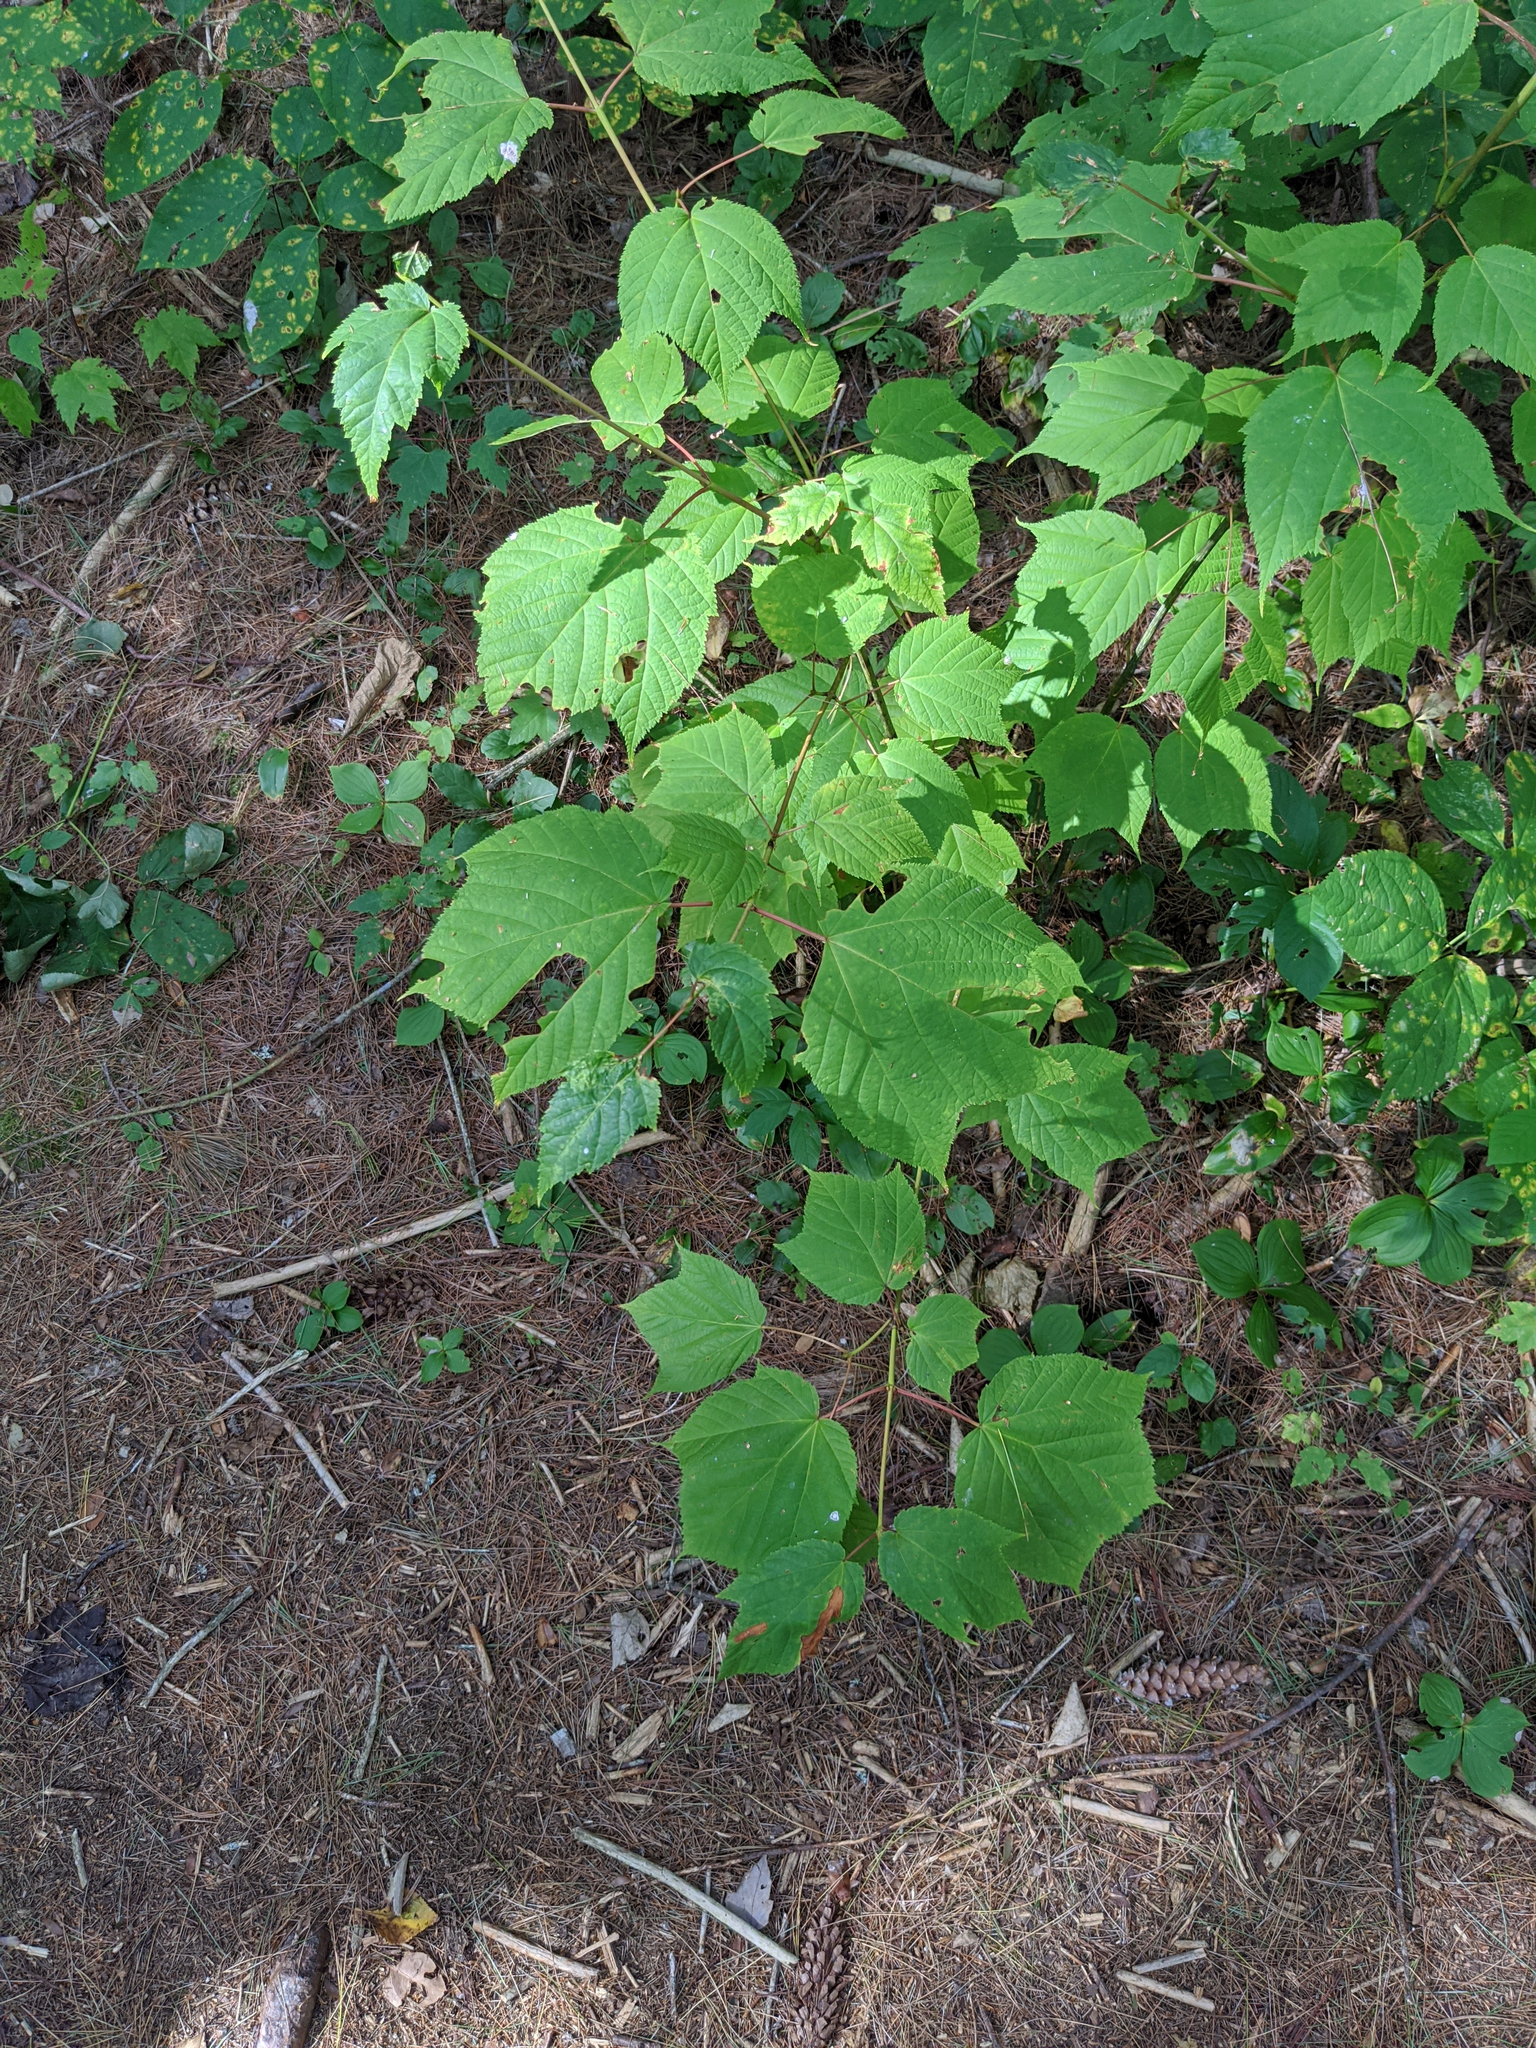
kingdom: Plantae
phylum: Tracheophyta
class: Magnoliopsida
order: Sapindales
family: Sapindaceae
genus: Acer
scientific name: Acer pensylvanicum
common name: Moosewood
